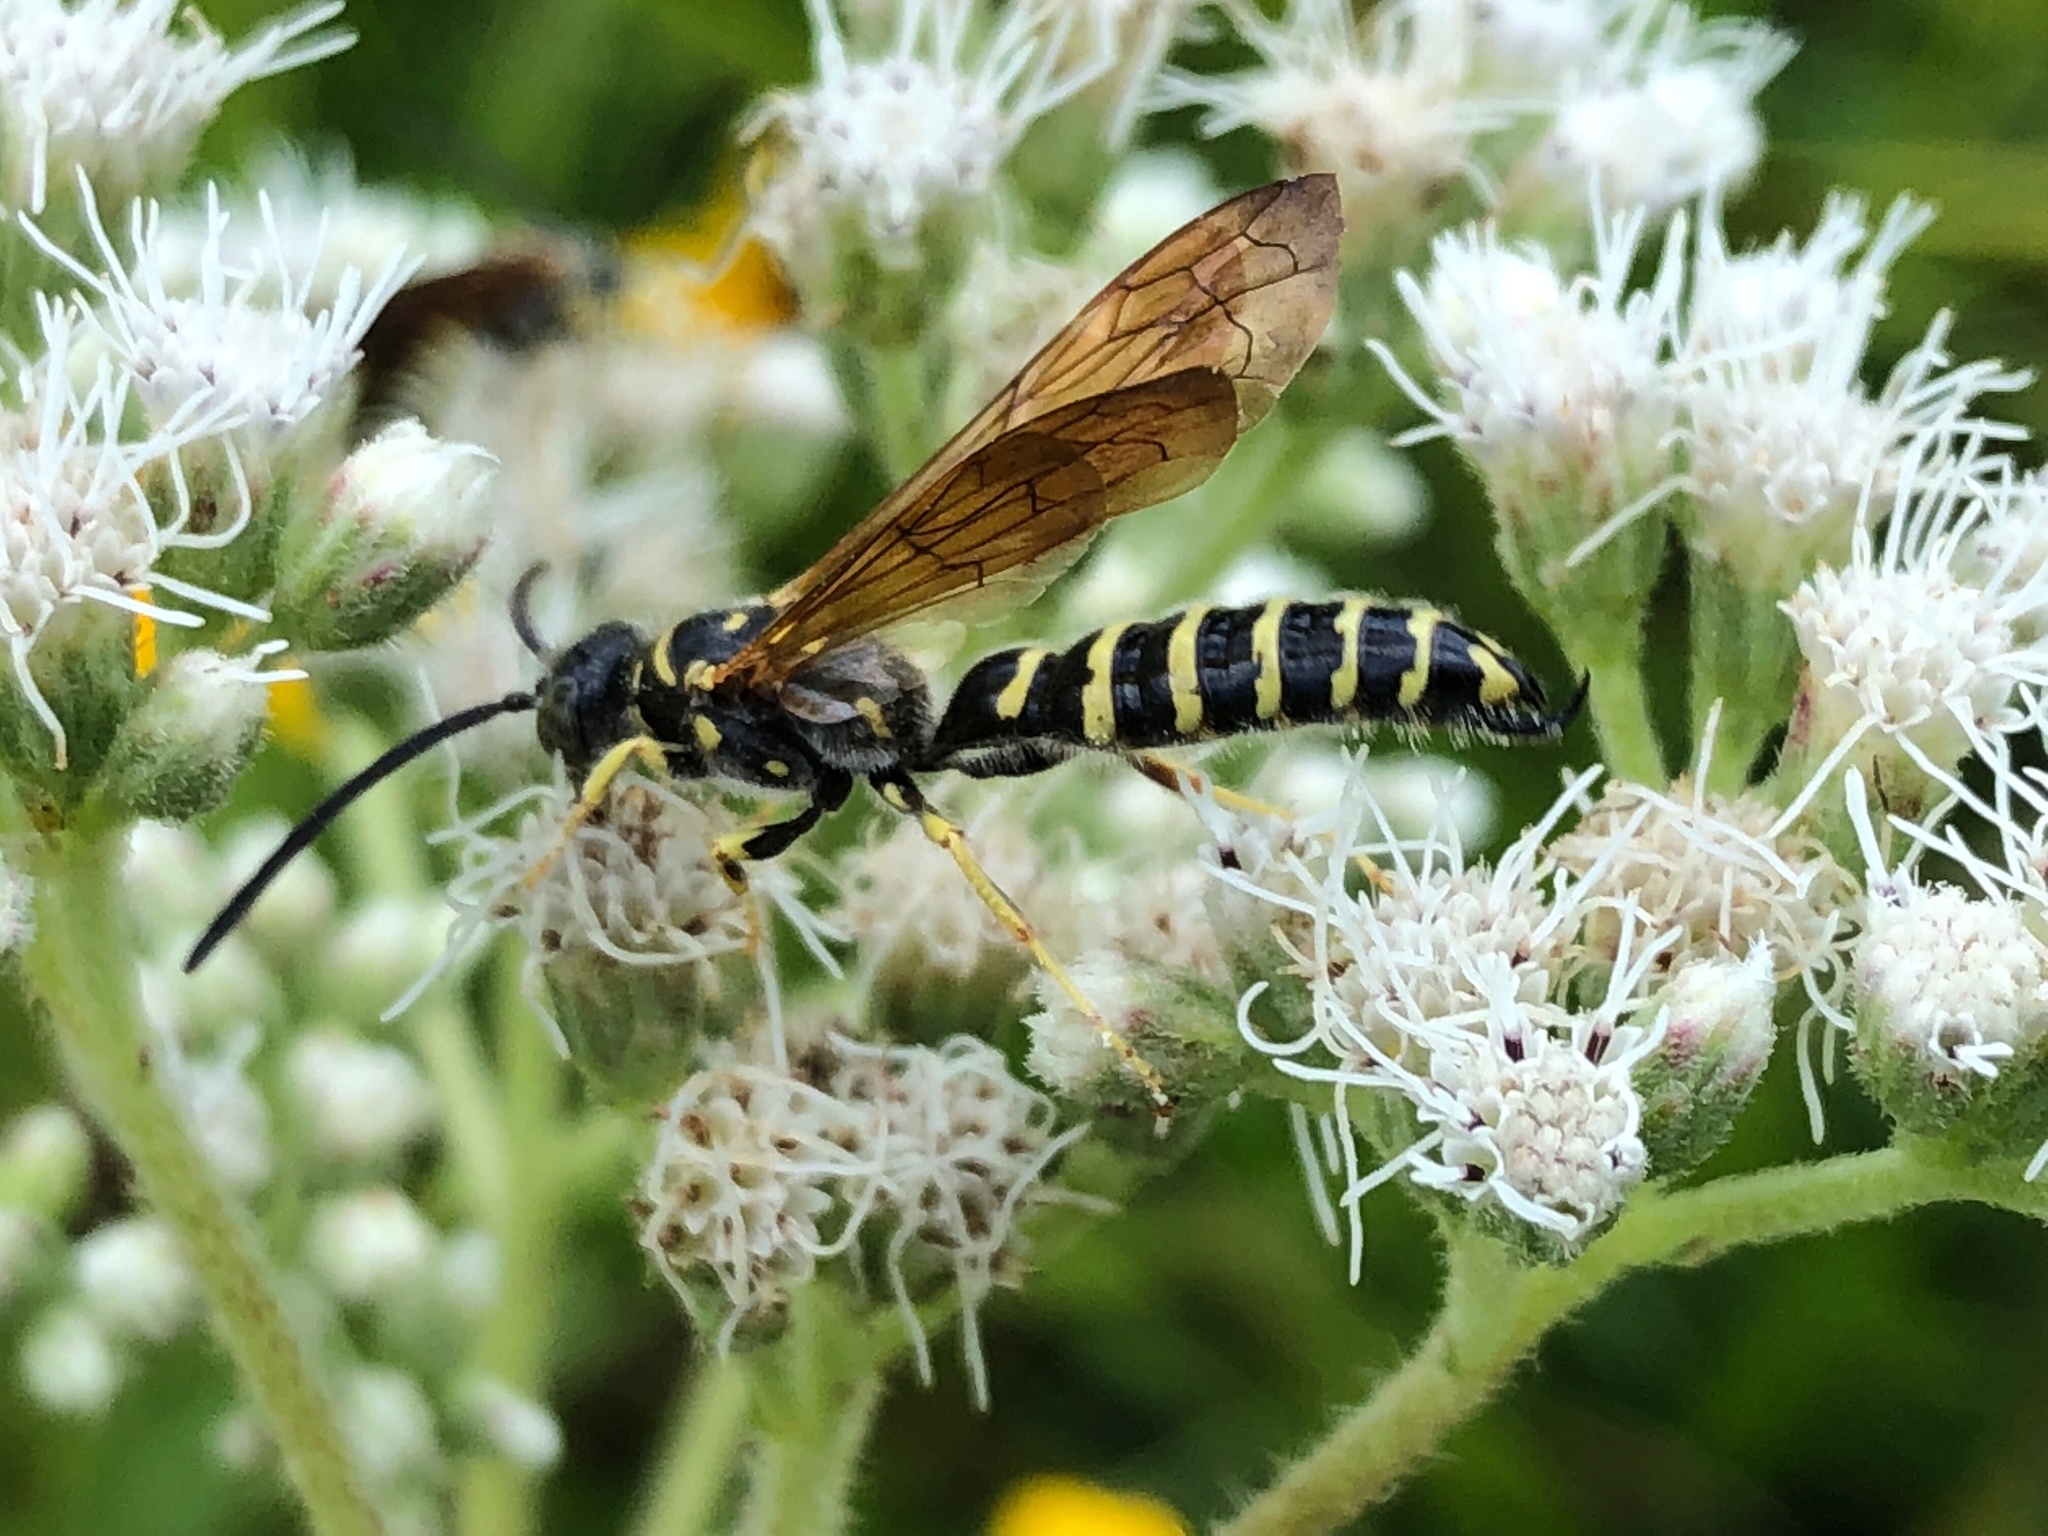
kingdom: Animalia
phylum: Arthropoda
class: Insecta
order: Hymenoptera
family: Tiphiidae
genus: Myzinum
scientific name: Myzinum quinquecinctum
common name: Five-banded thynnid wasp
